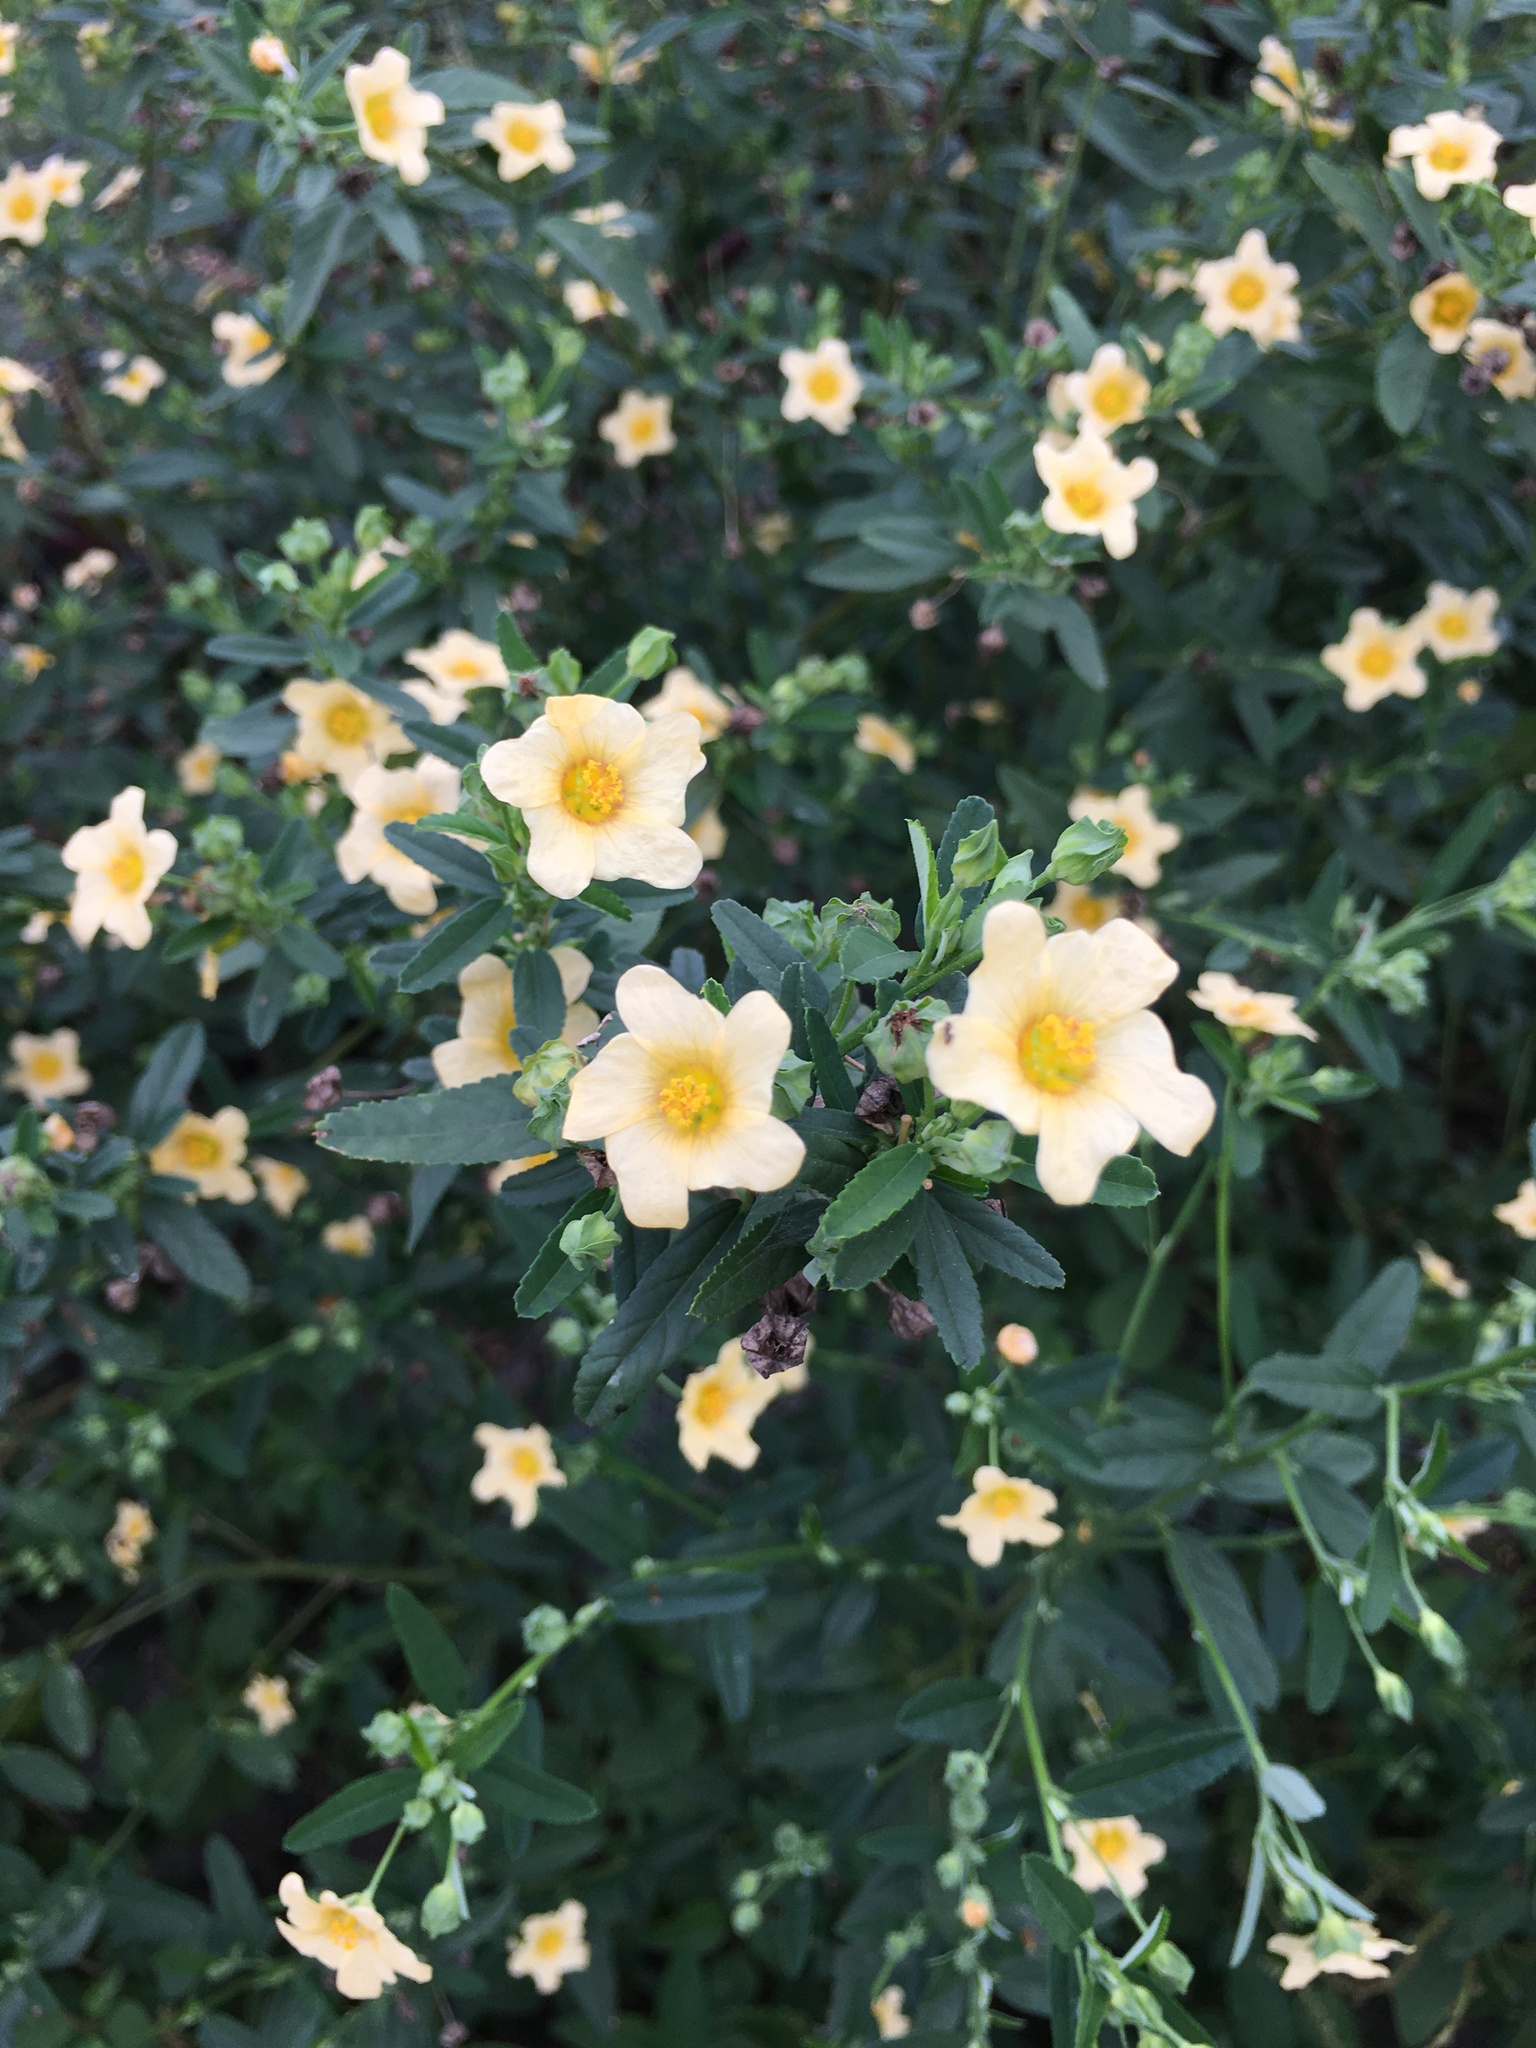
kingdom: Plantae
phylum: Tracheophyta
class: Magnoliopsida
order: Malvales
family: Malvaceae
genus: Sida
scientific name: Sida rhombifolia
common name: Queensland-hemp
